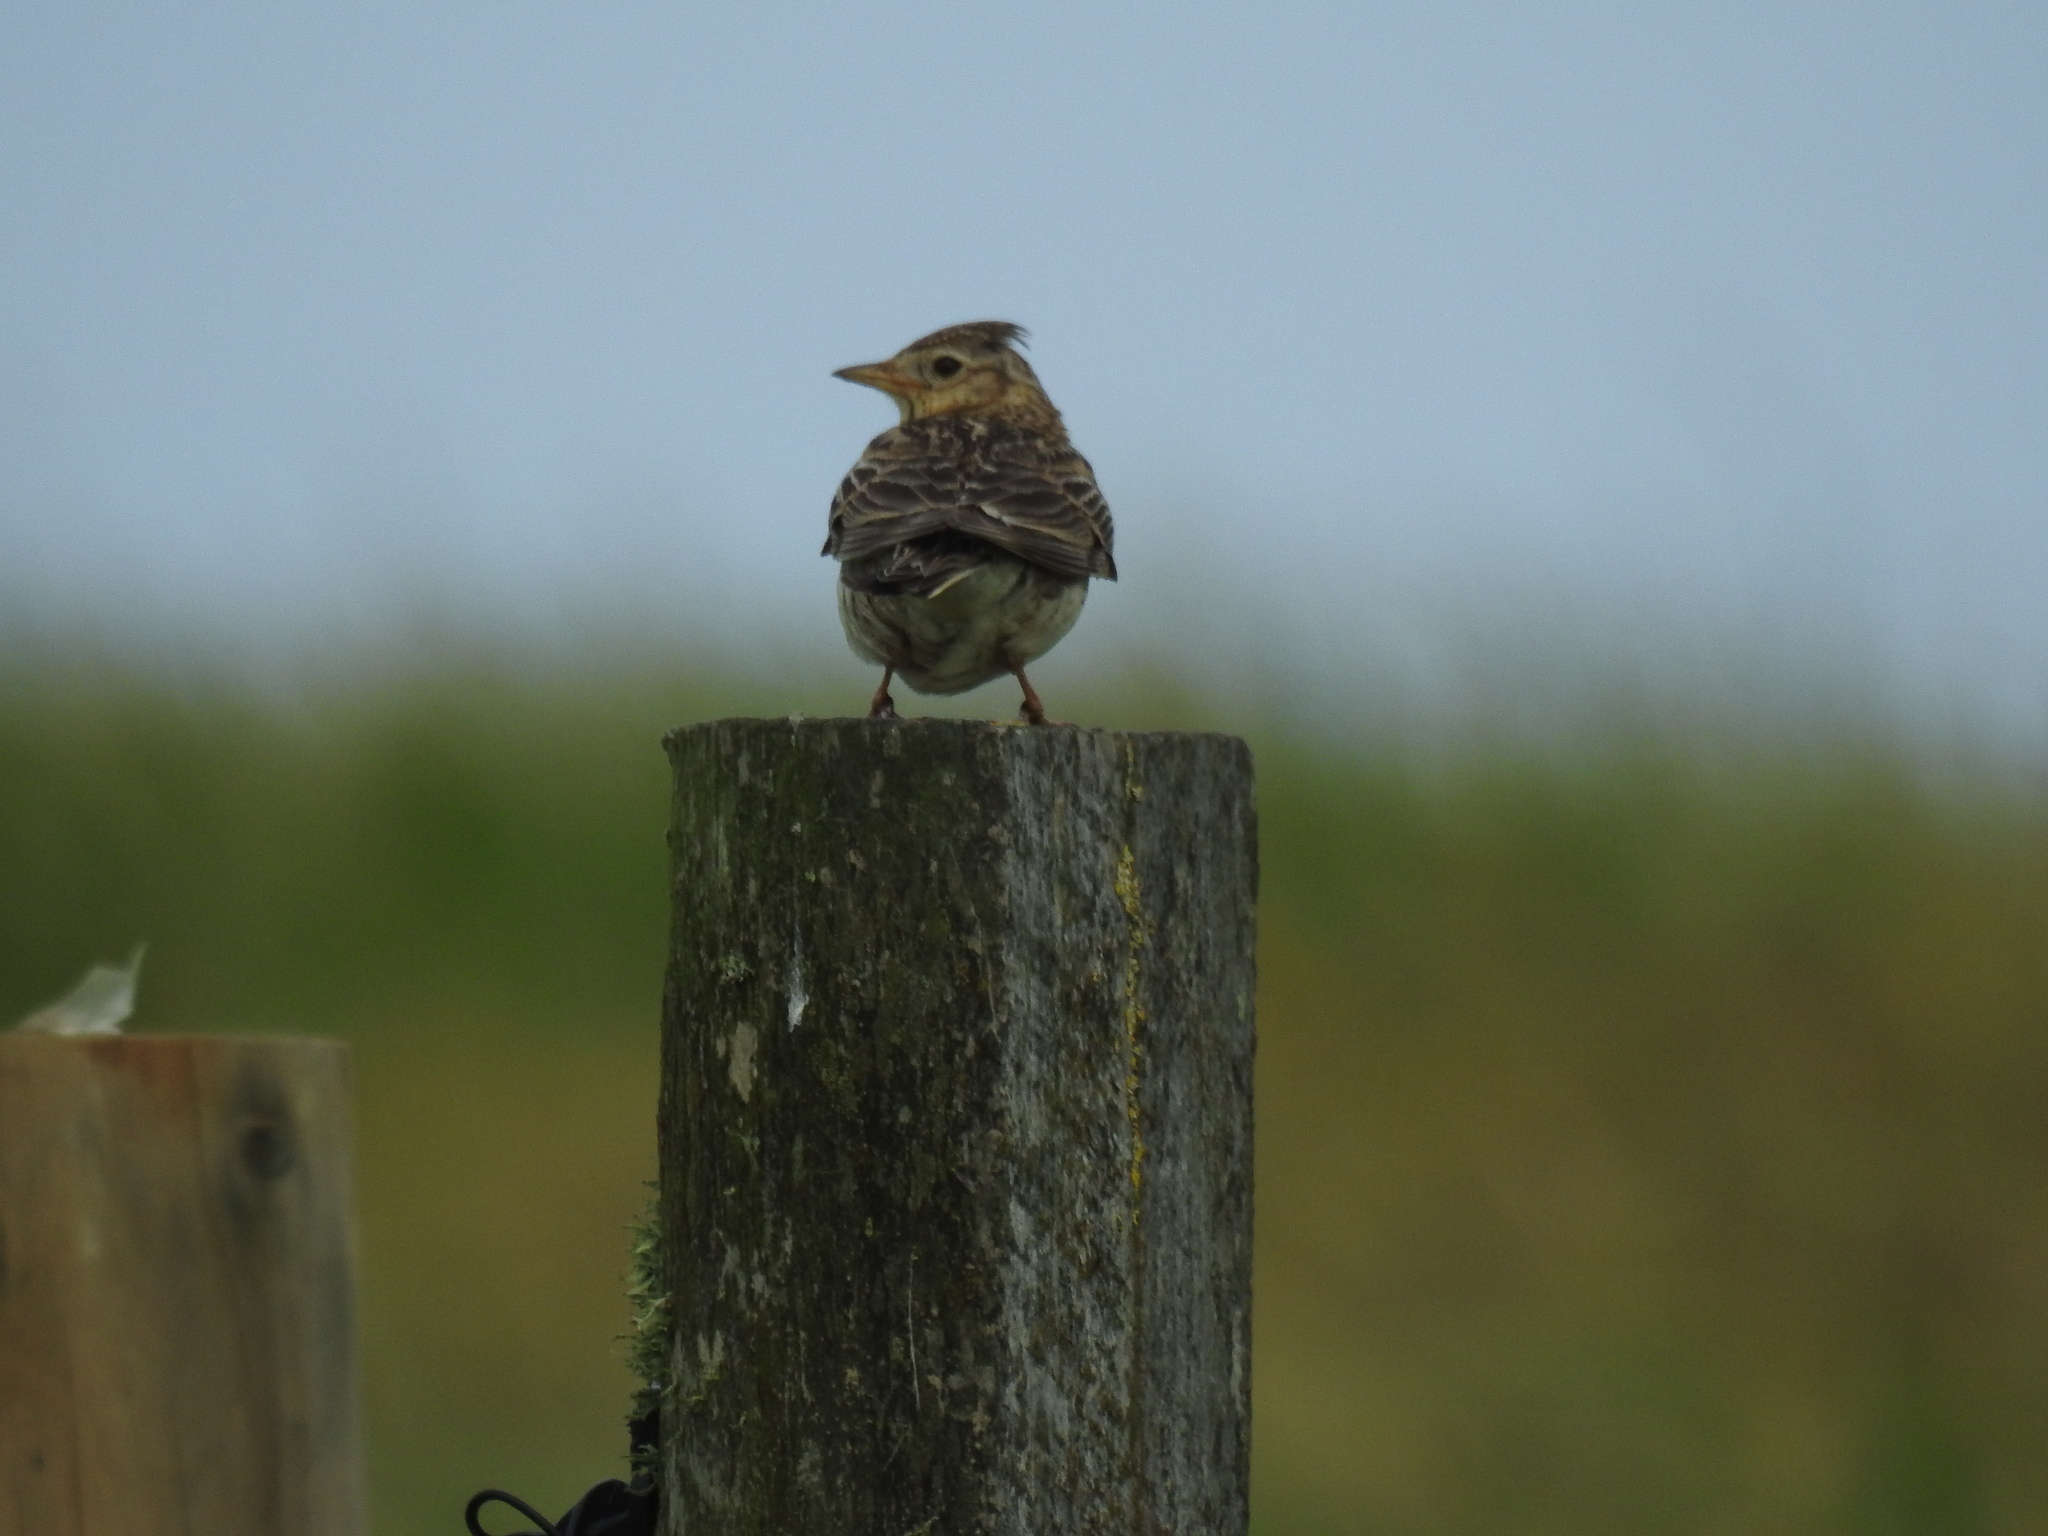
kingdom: Animalia
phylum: Chordata
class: Aves
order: Passeriformes
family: Alaudidae
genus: Alauda
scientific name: Alauda arvensis
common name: Eurasian skylark
